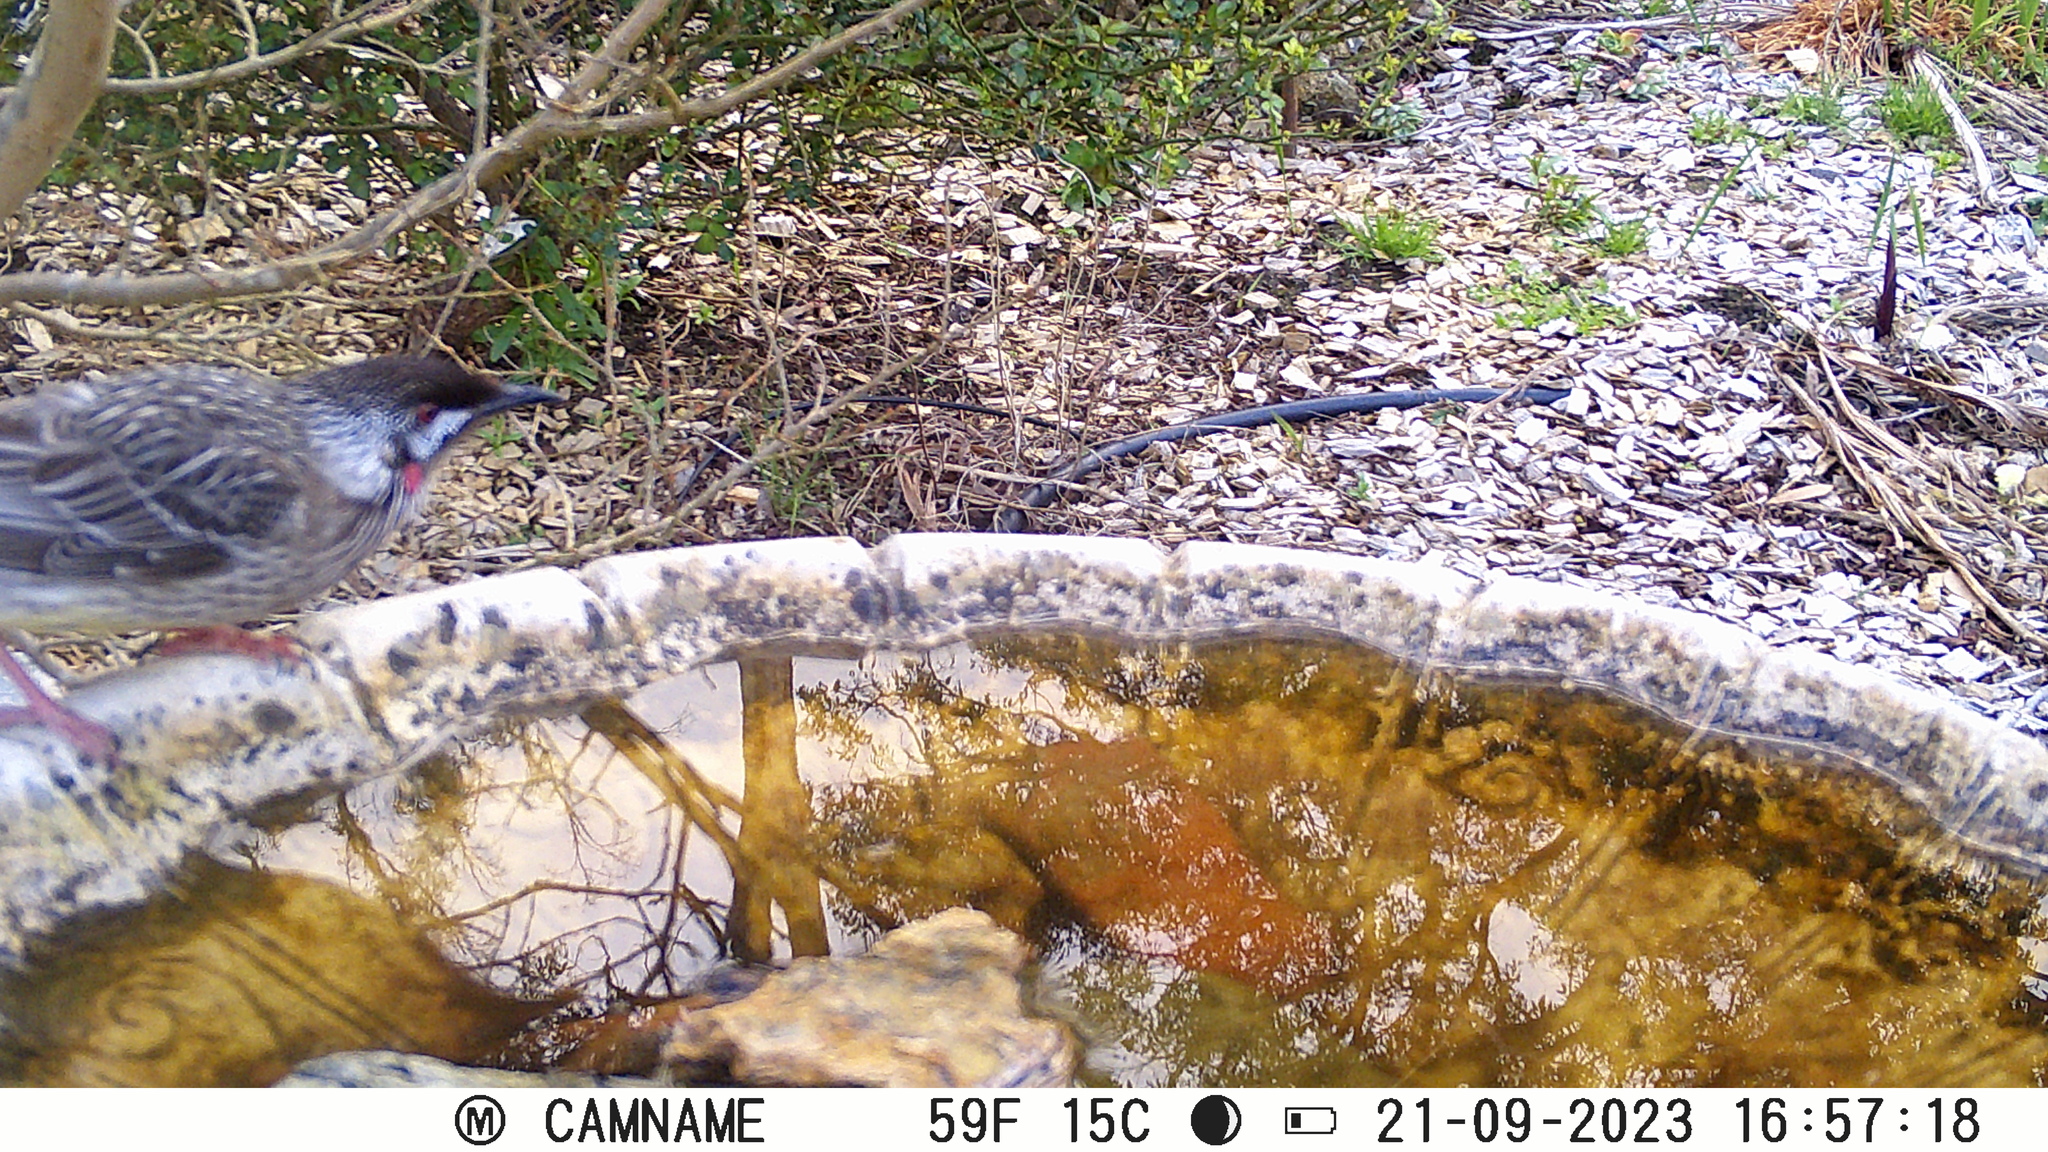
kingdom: Animalia
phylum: Chordata
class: Aves
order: Passeriformes
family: Meliphagidae
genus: Anthochaera
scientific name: Anthochaera carunculata
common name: Red wattlebird
